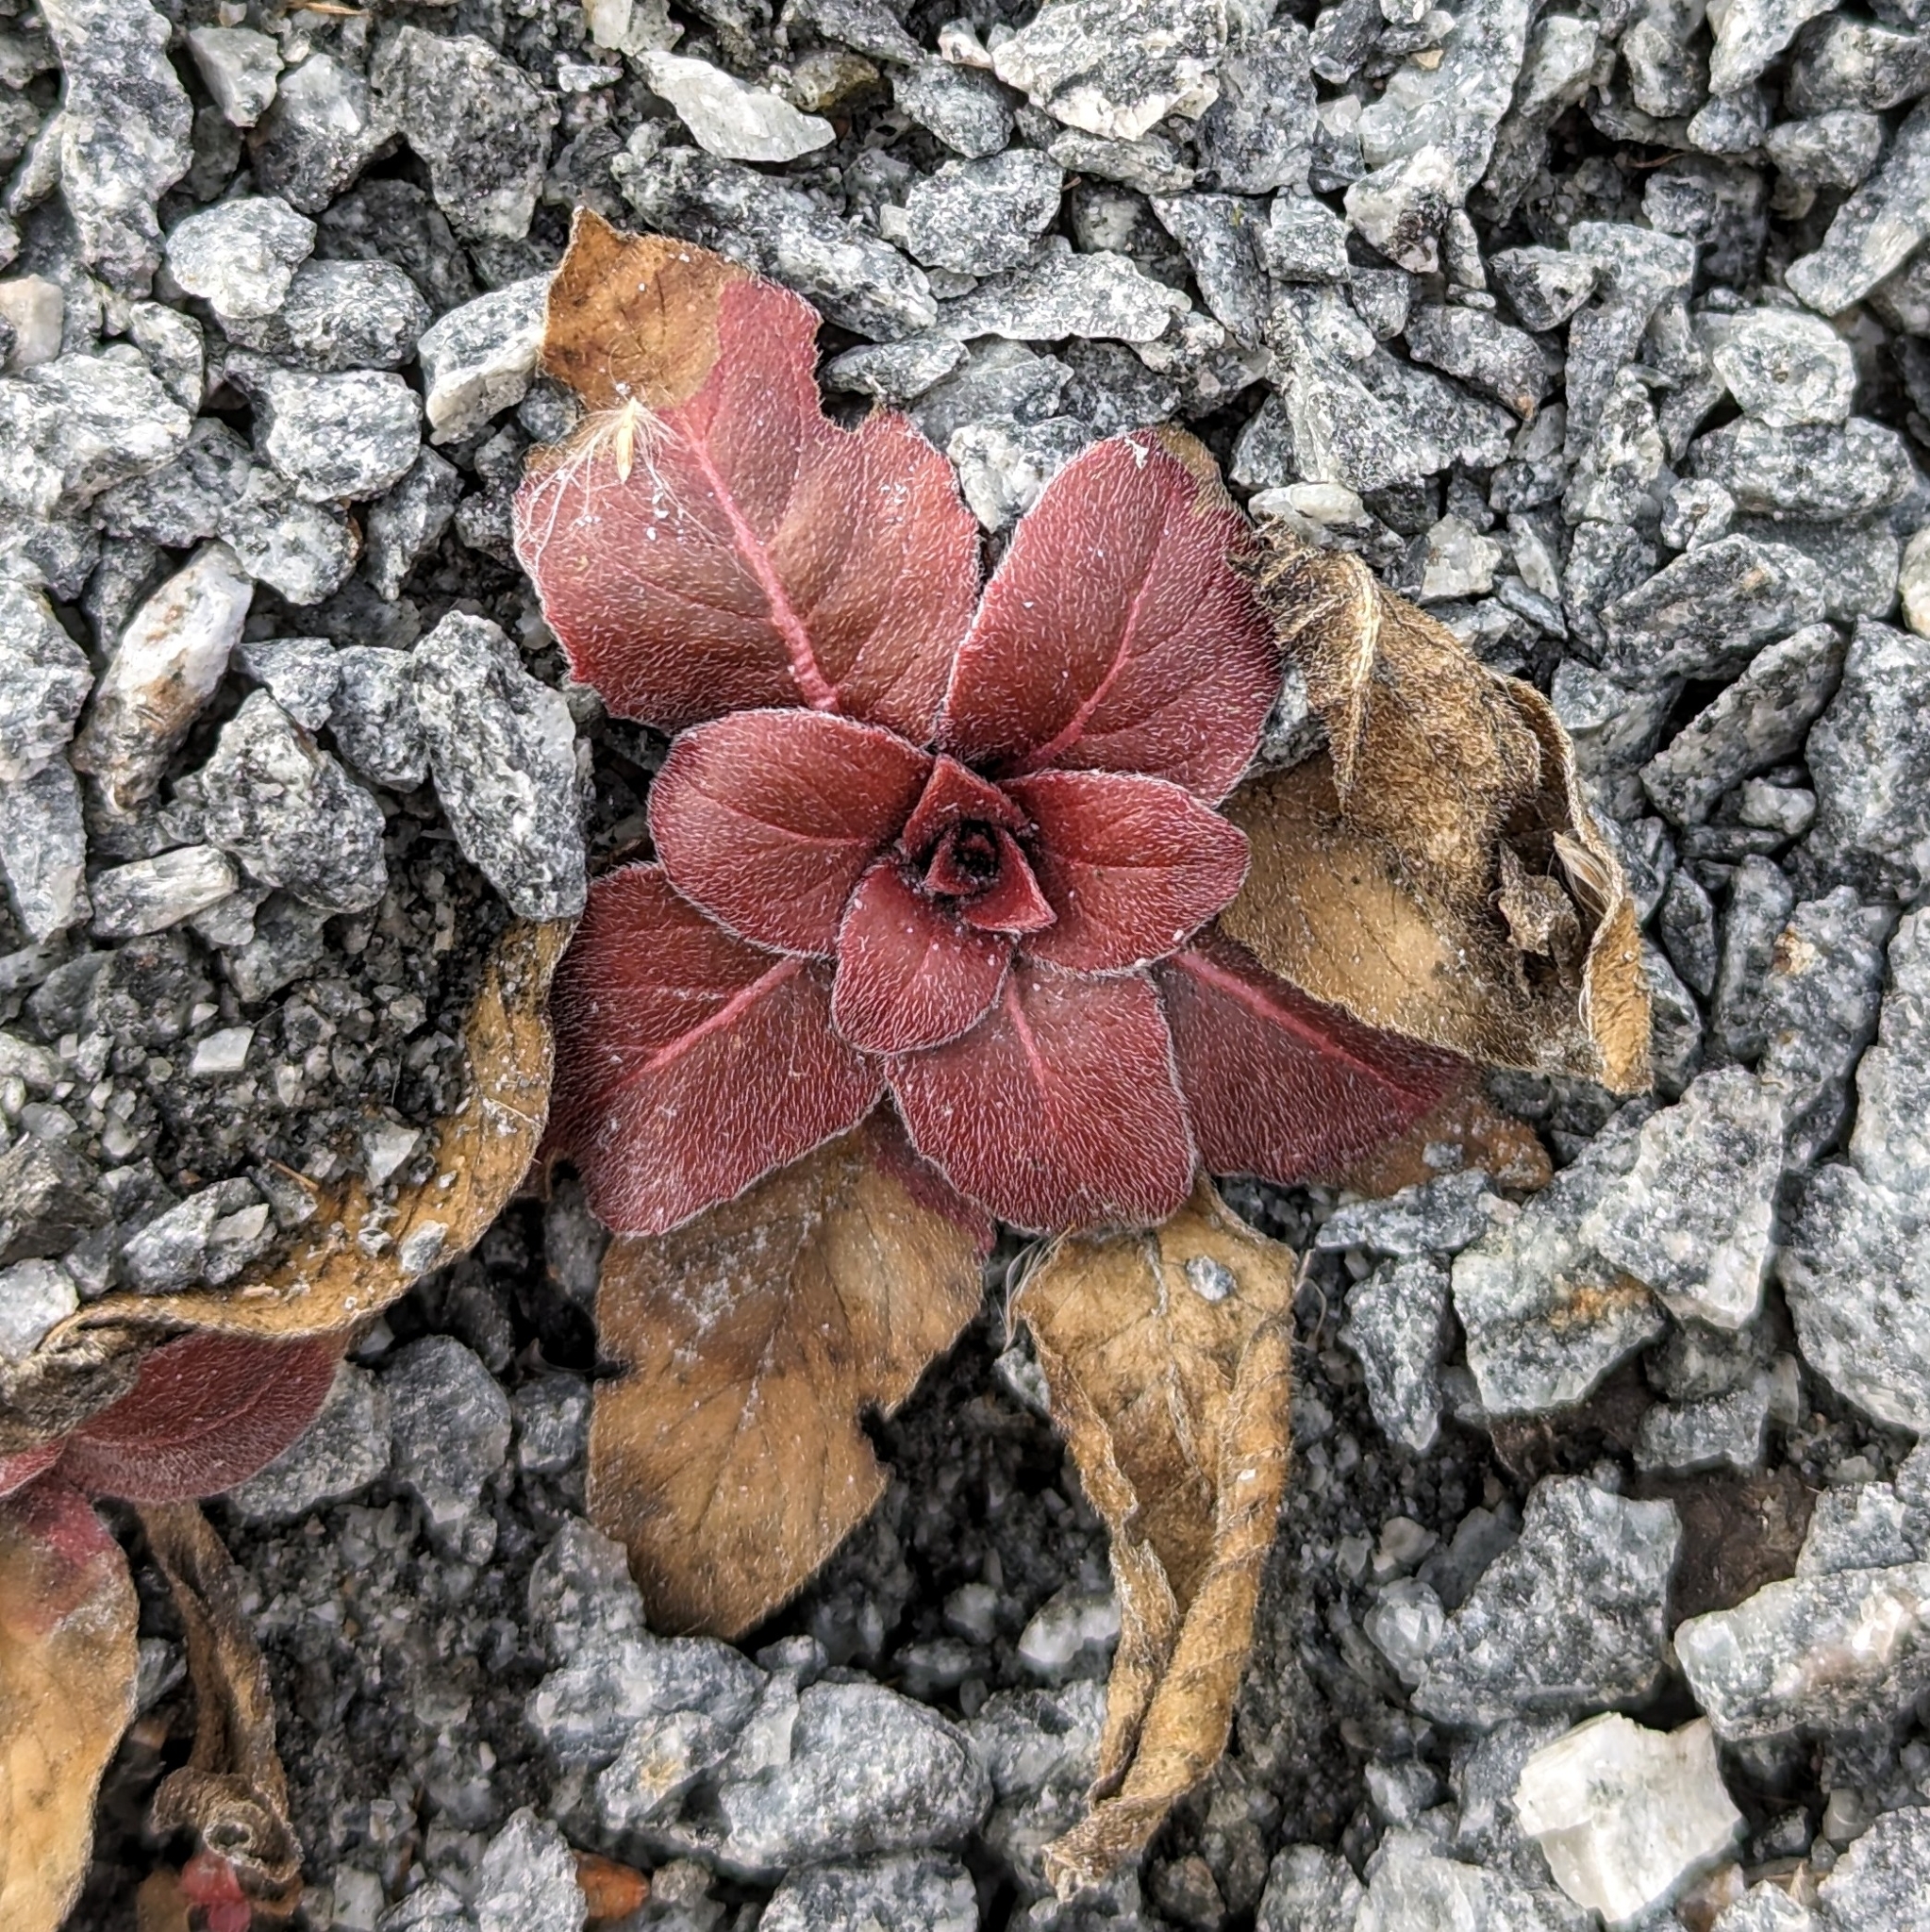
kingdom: Plantae
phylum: Tracheophyta
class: Magnoliopsida
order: Myrtales
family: Onagraceae
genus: Oenothera
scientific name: Oenothera biennis
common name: Common evening-primrose
